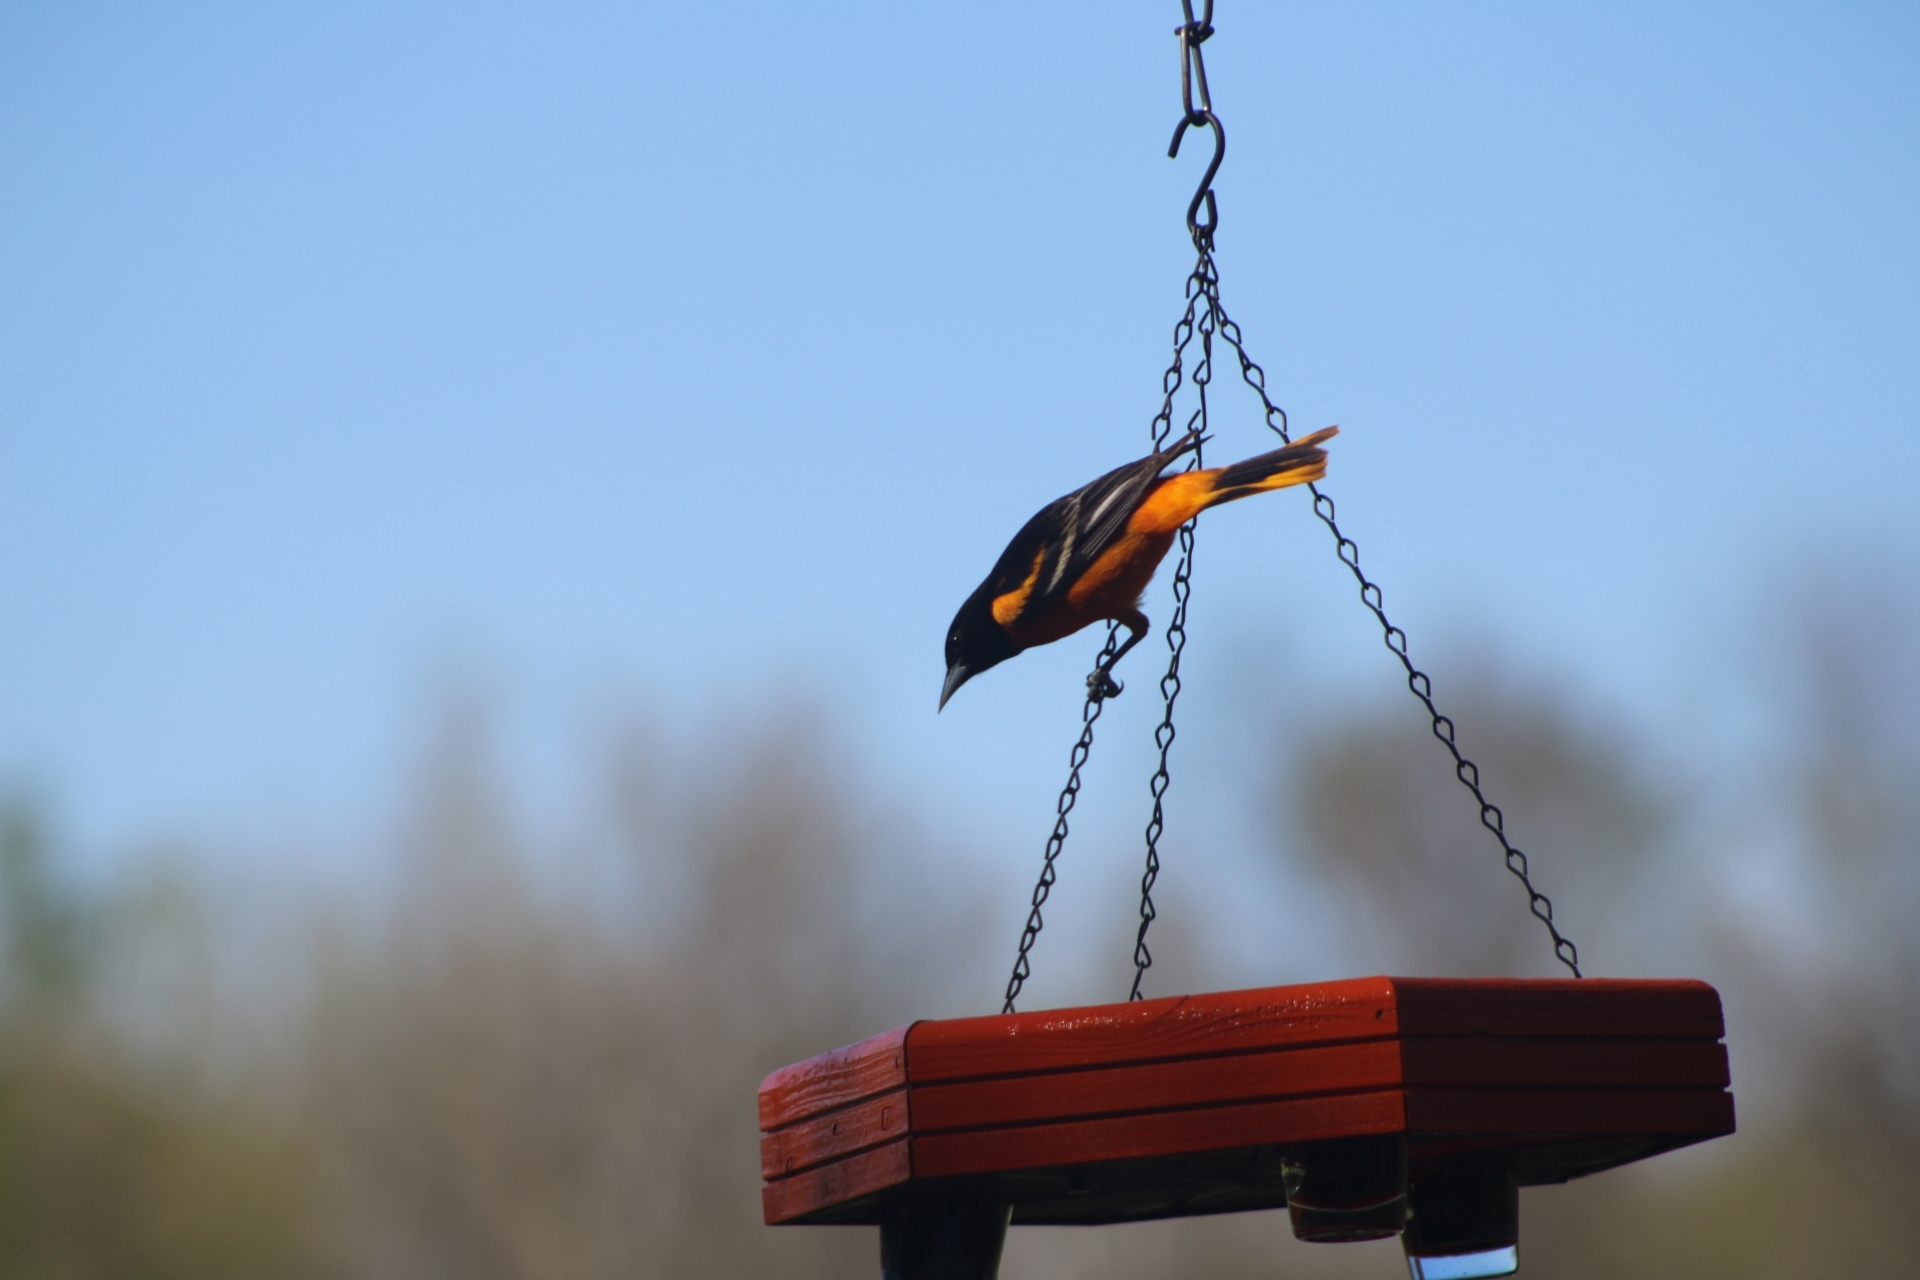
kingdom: Animalia
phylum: Chordata
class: Aves
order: Passeriformes
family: Icteridae
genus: Icterus
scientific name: Icterus galbula
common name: Baltimore oriole
